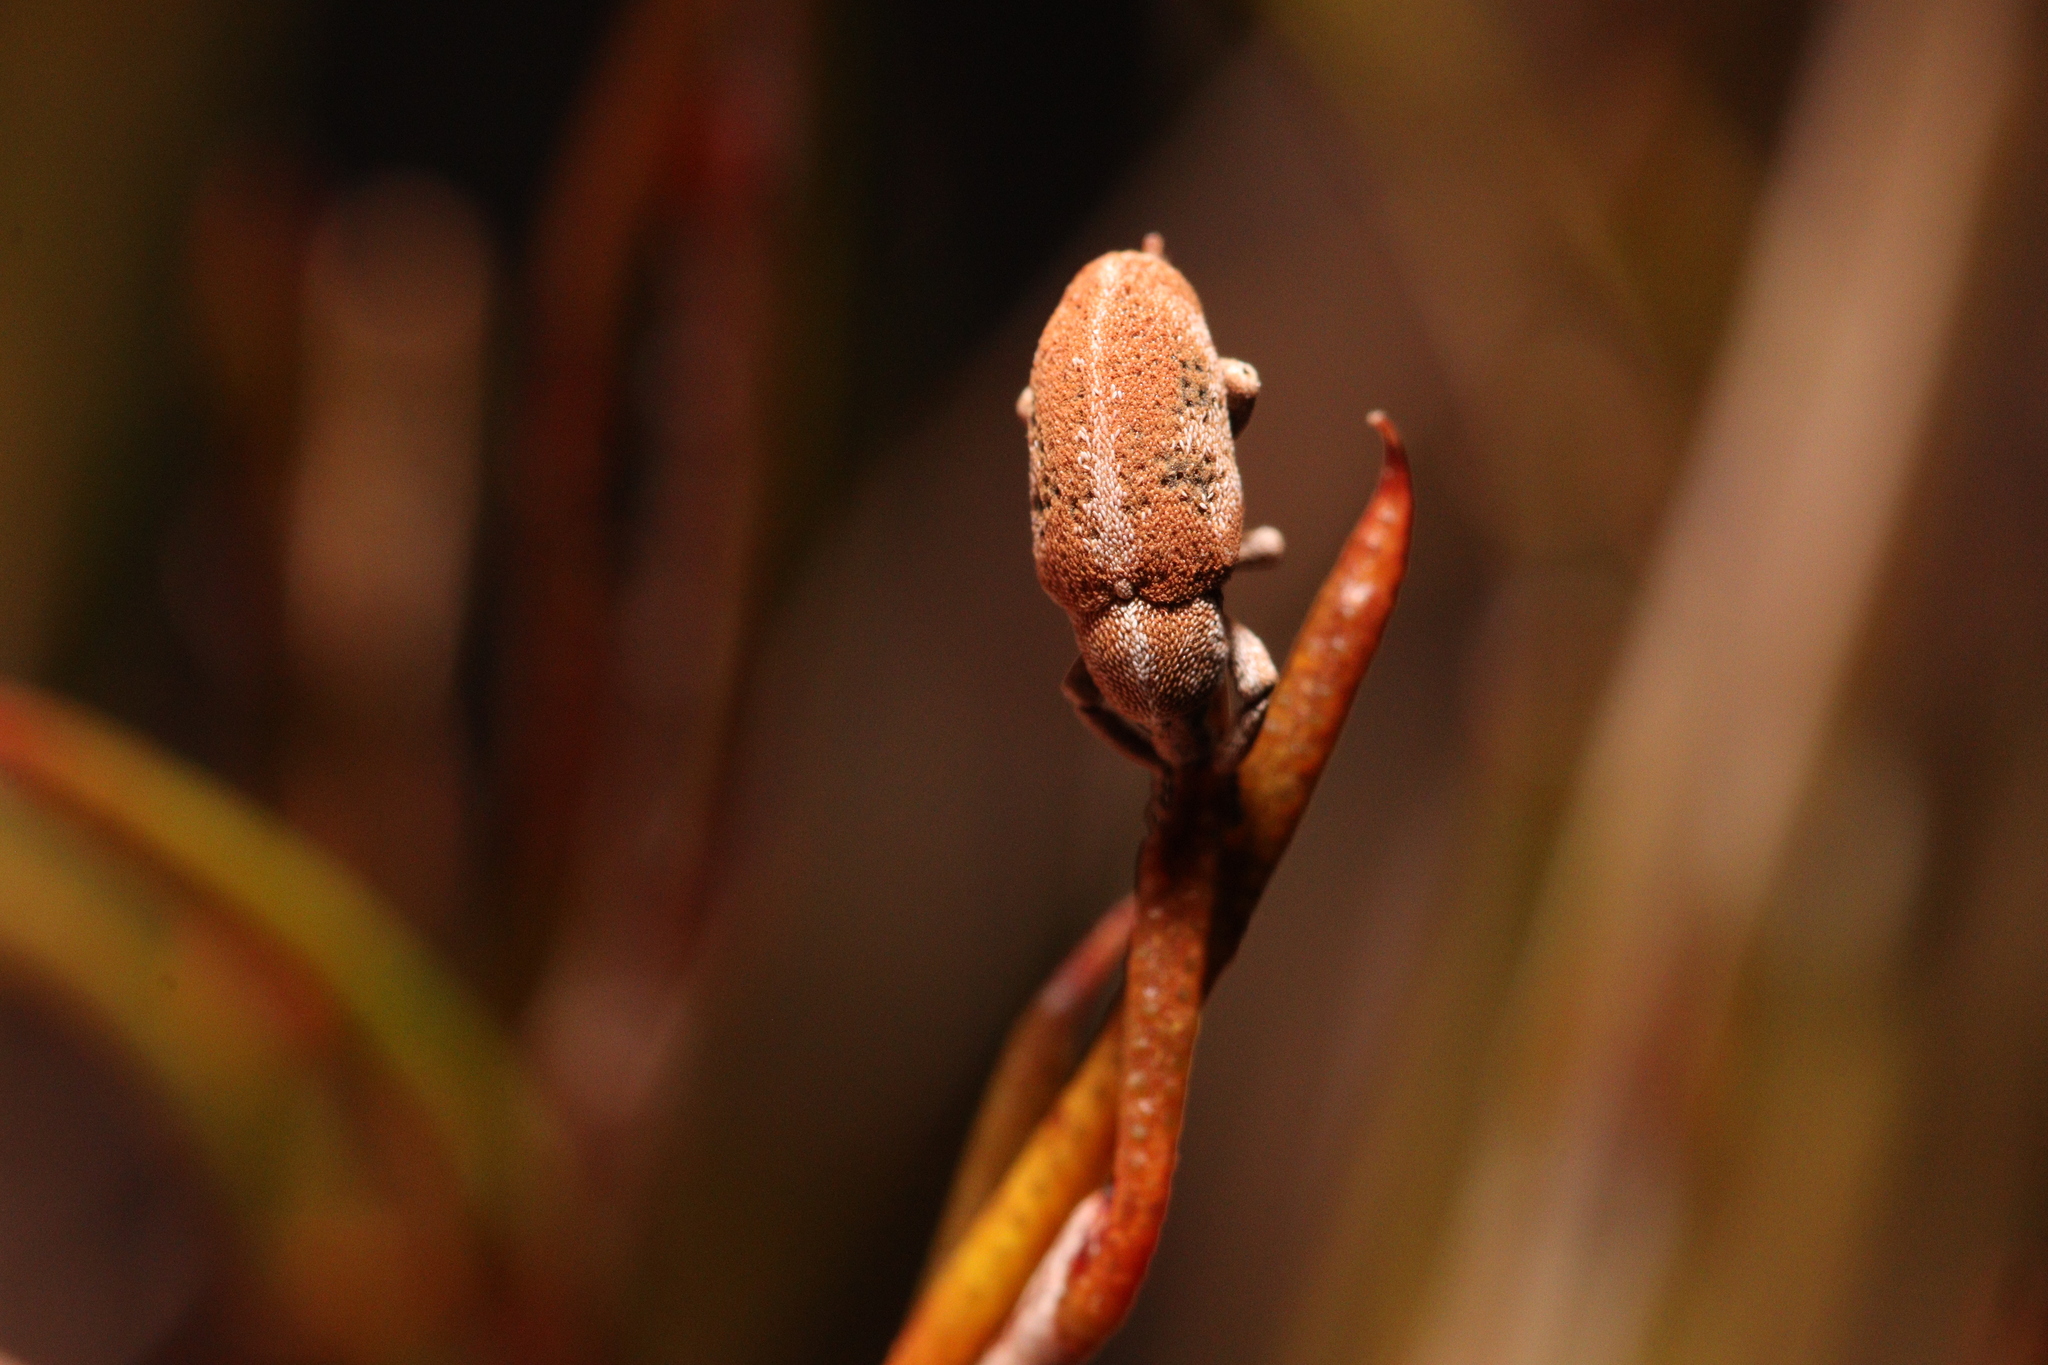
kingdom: Animalia
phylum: Arthropoda
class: Insecta
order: Coleoptera
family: Curculionidae
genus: Pantoreites
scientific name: Pantoreites arctatus
